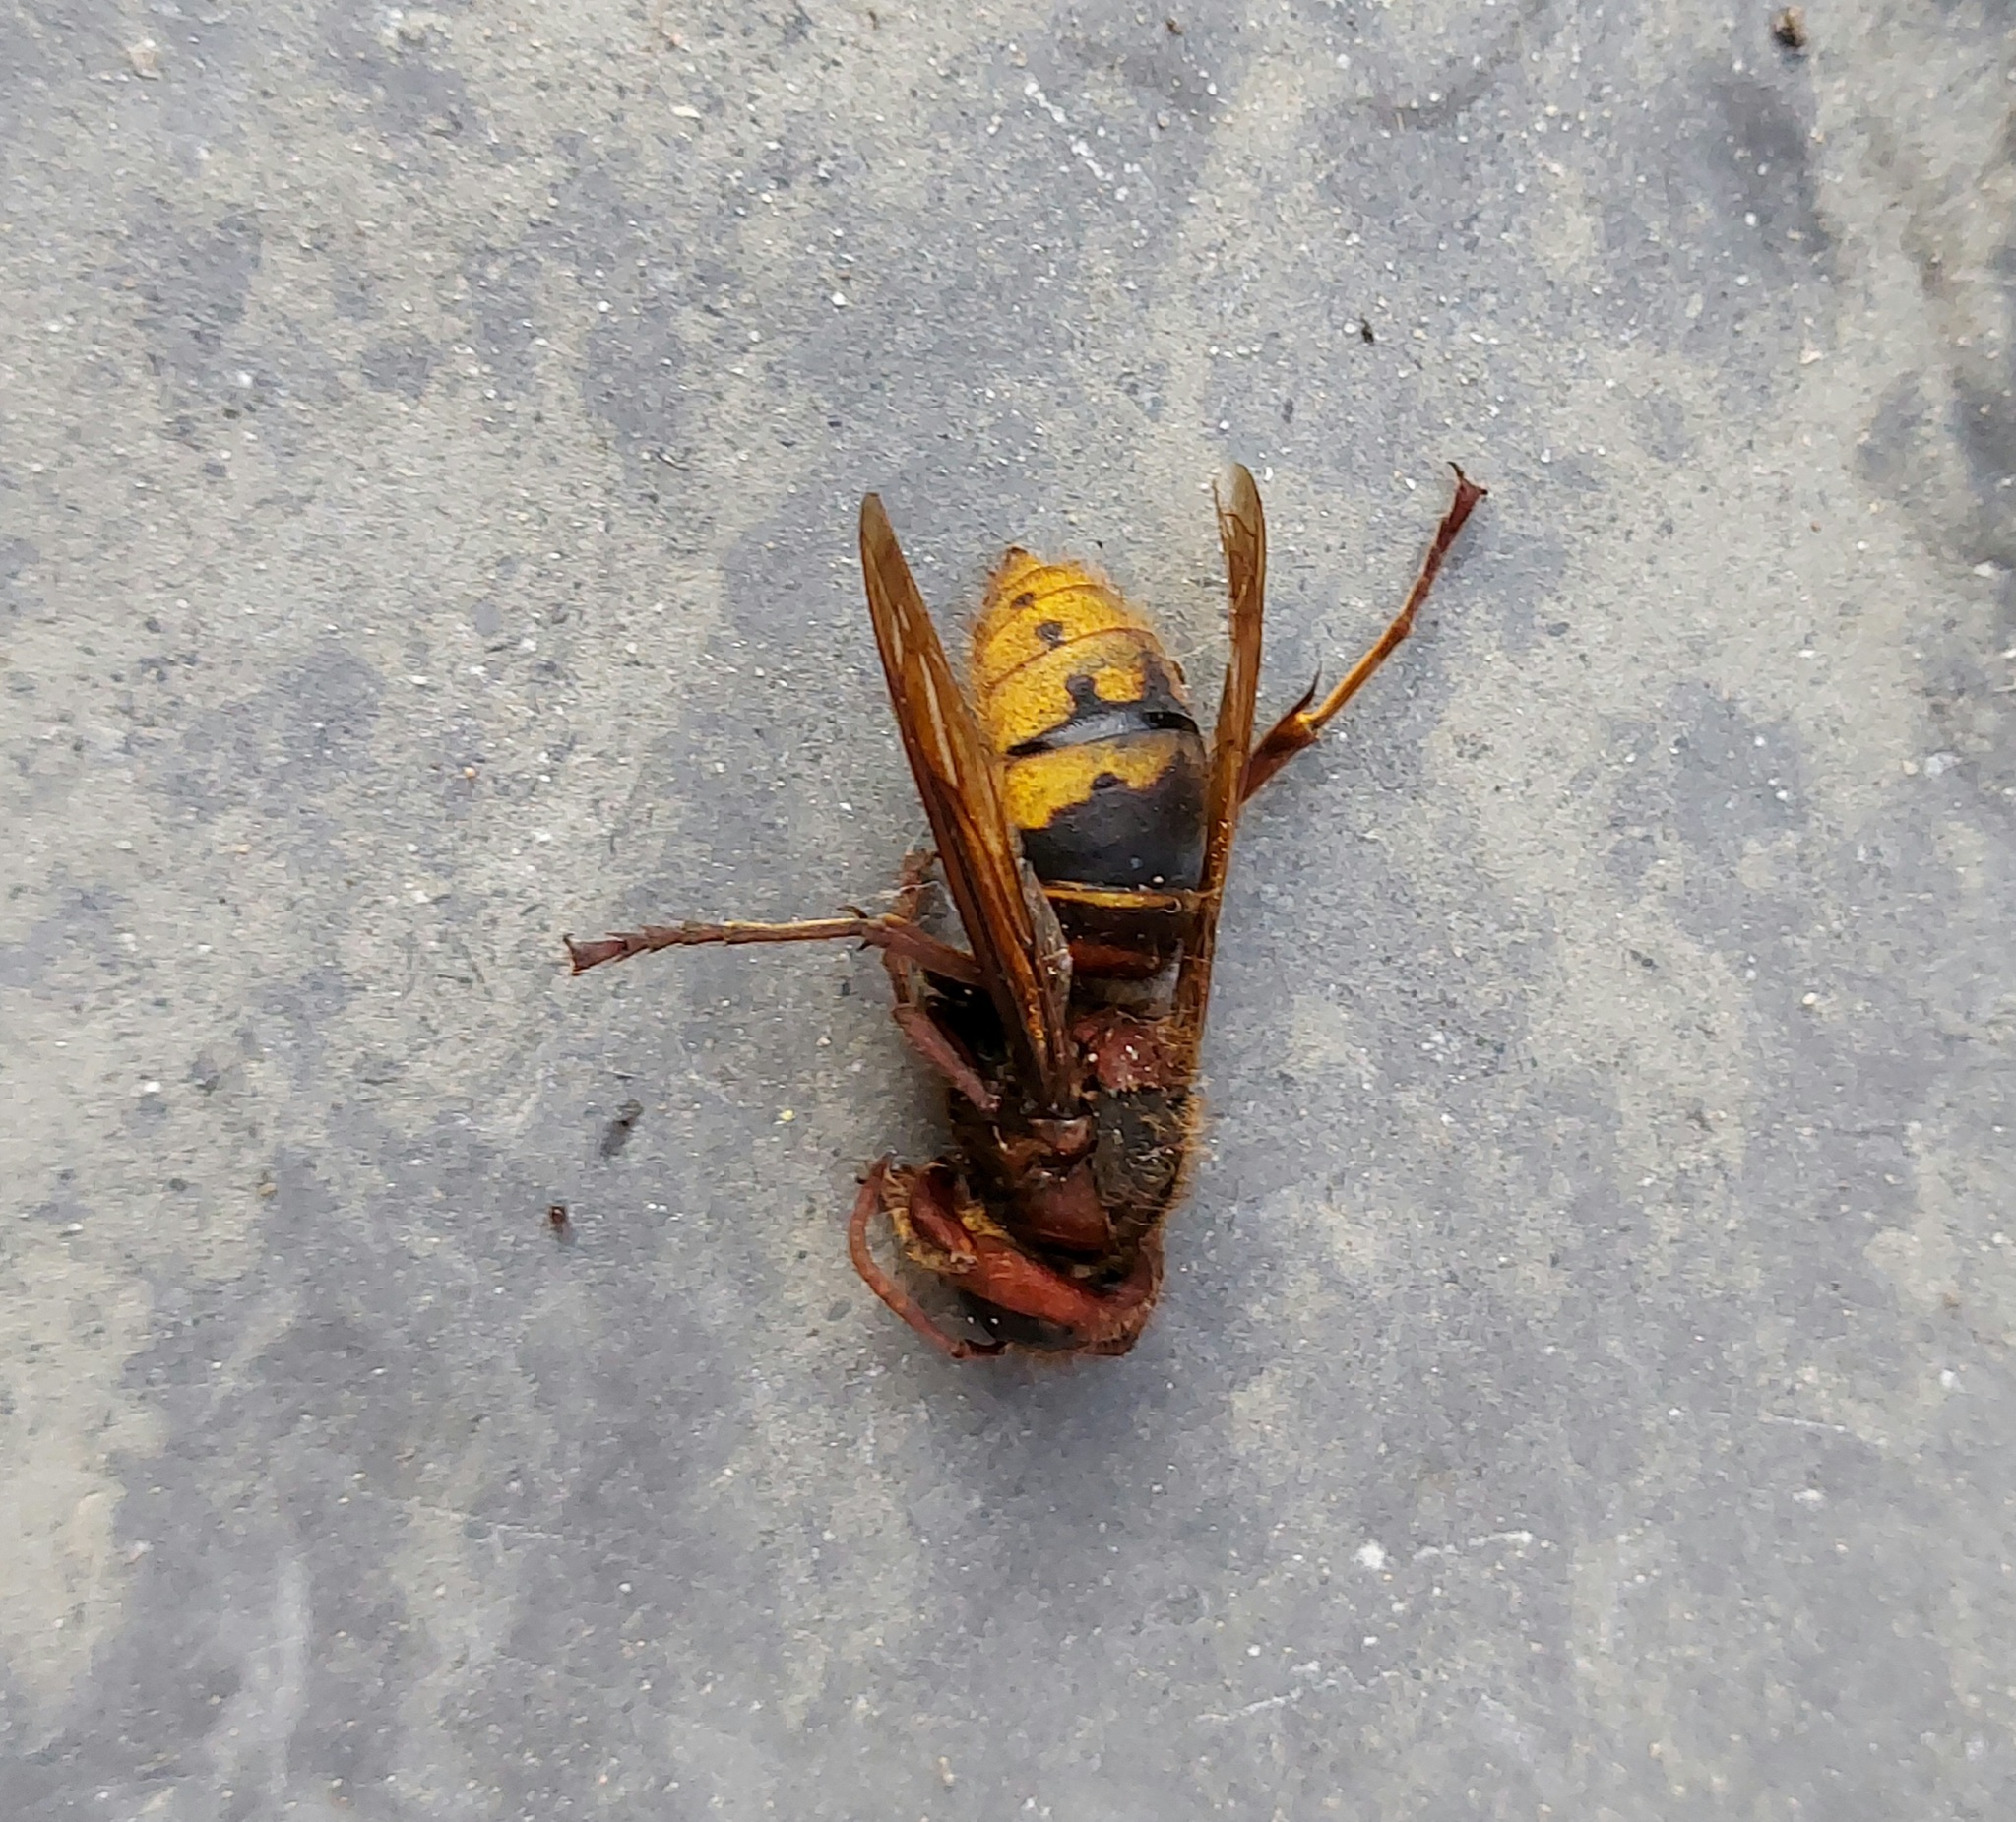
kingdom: Animalia
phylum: Arthropoda
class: Insecta
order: Hymenoptera
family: Vespidae
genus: Vespa
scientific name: Vespa crabro
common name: Hornet
